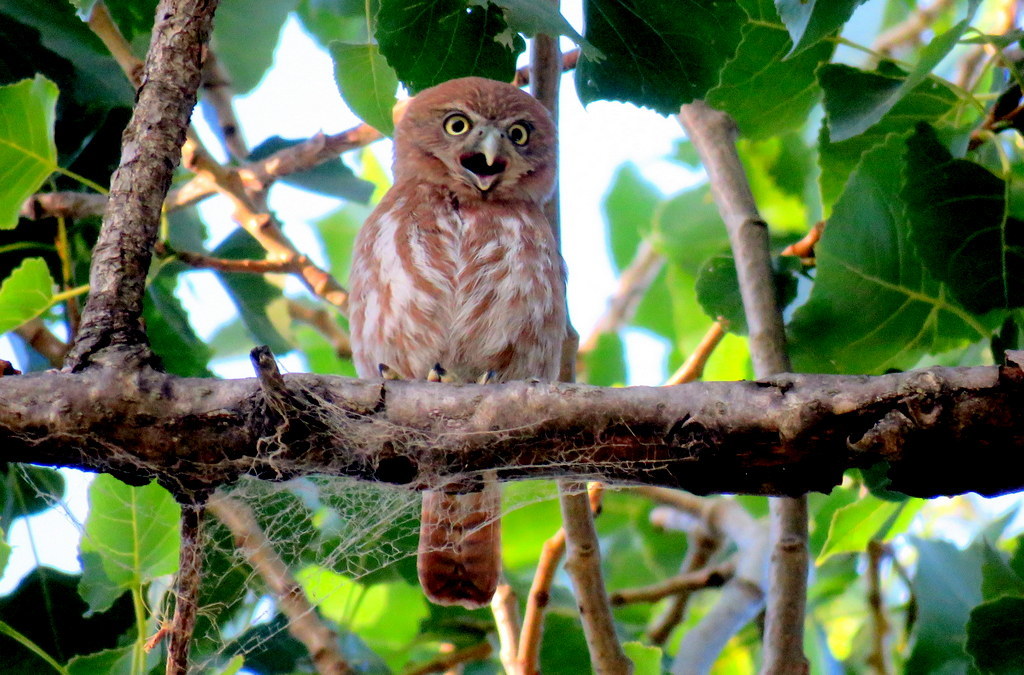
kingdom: Animalia
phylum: Chordata
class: Aves
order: Strigiformes
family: Strigidae
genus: Glaucidium
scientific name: Glaucidium brasilianum
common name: Ferruginous pygmy-owl
